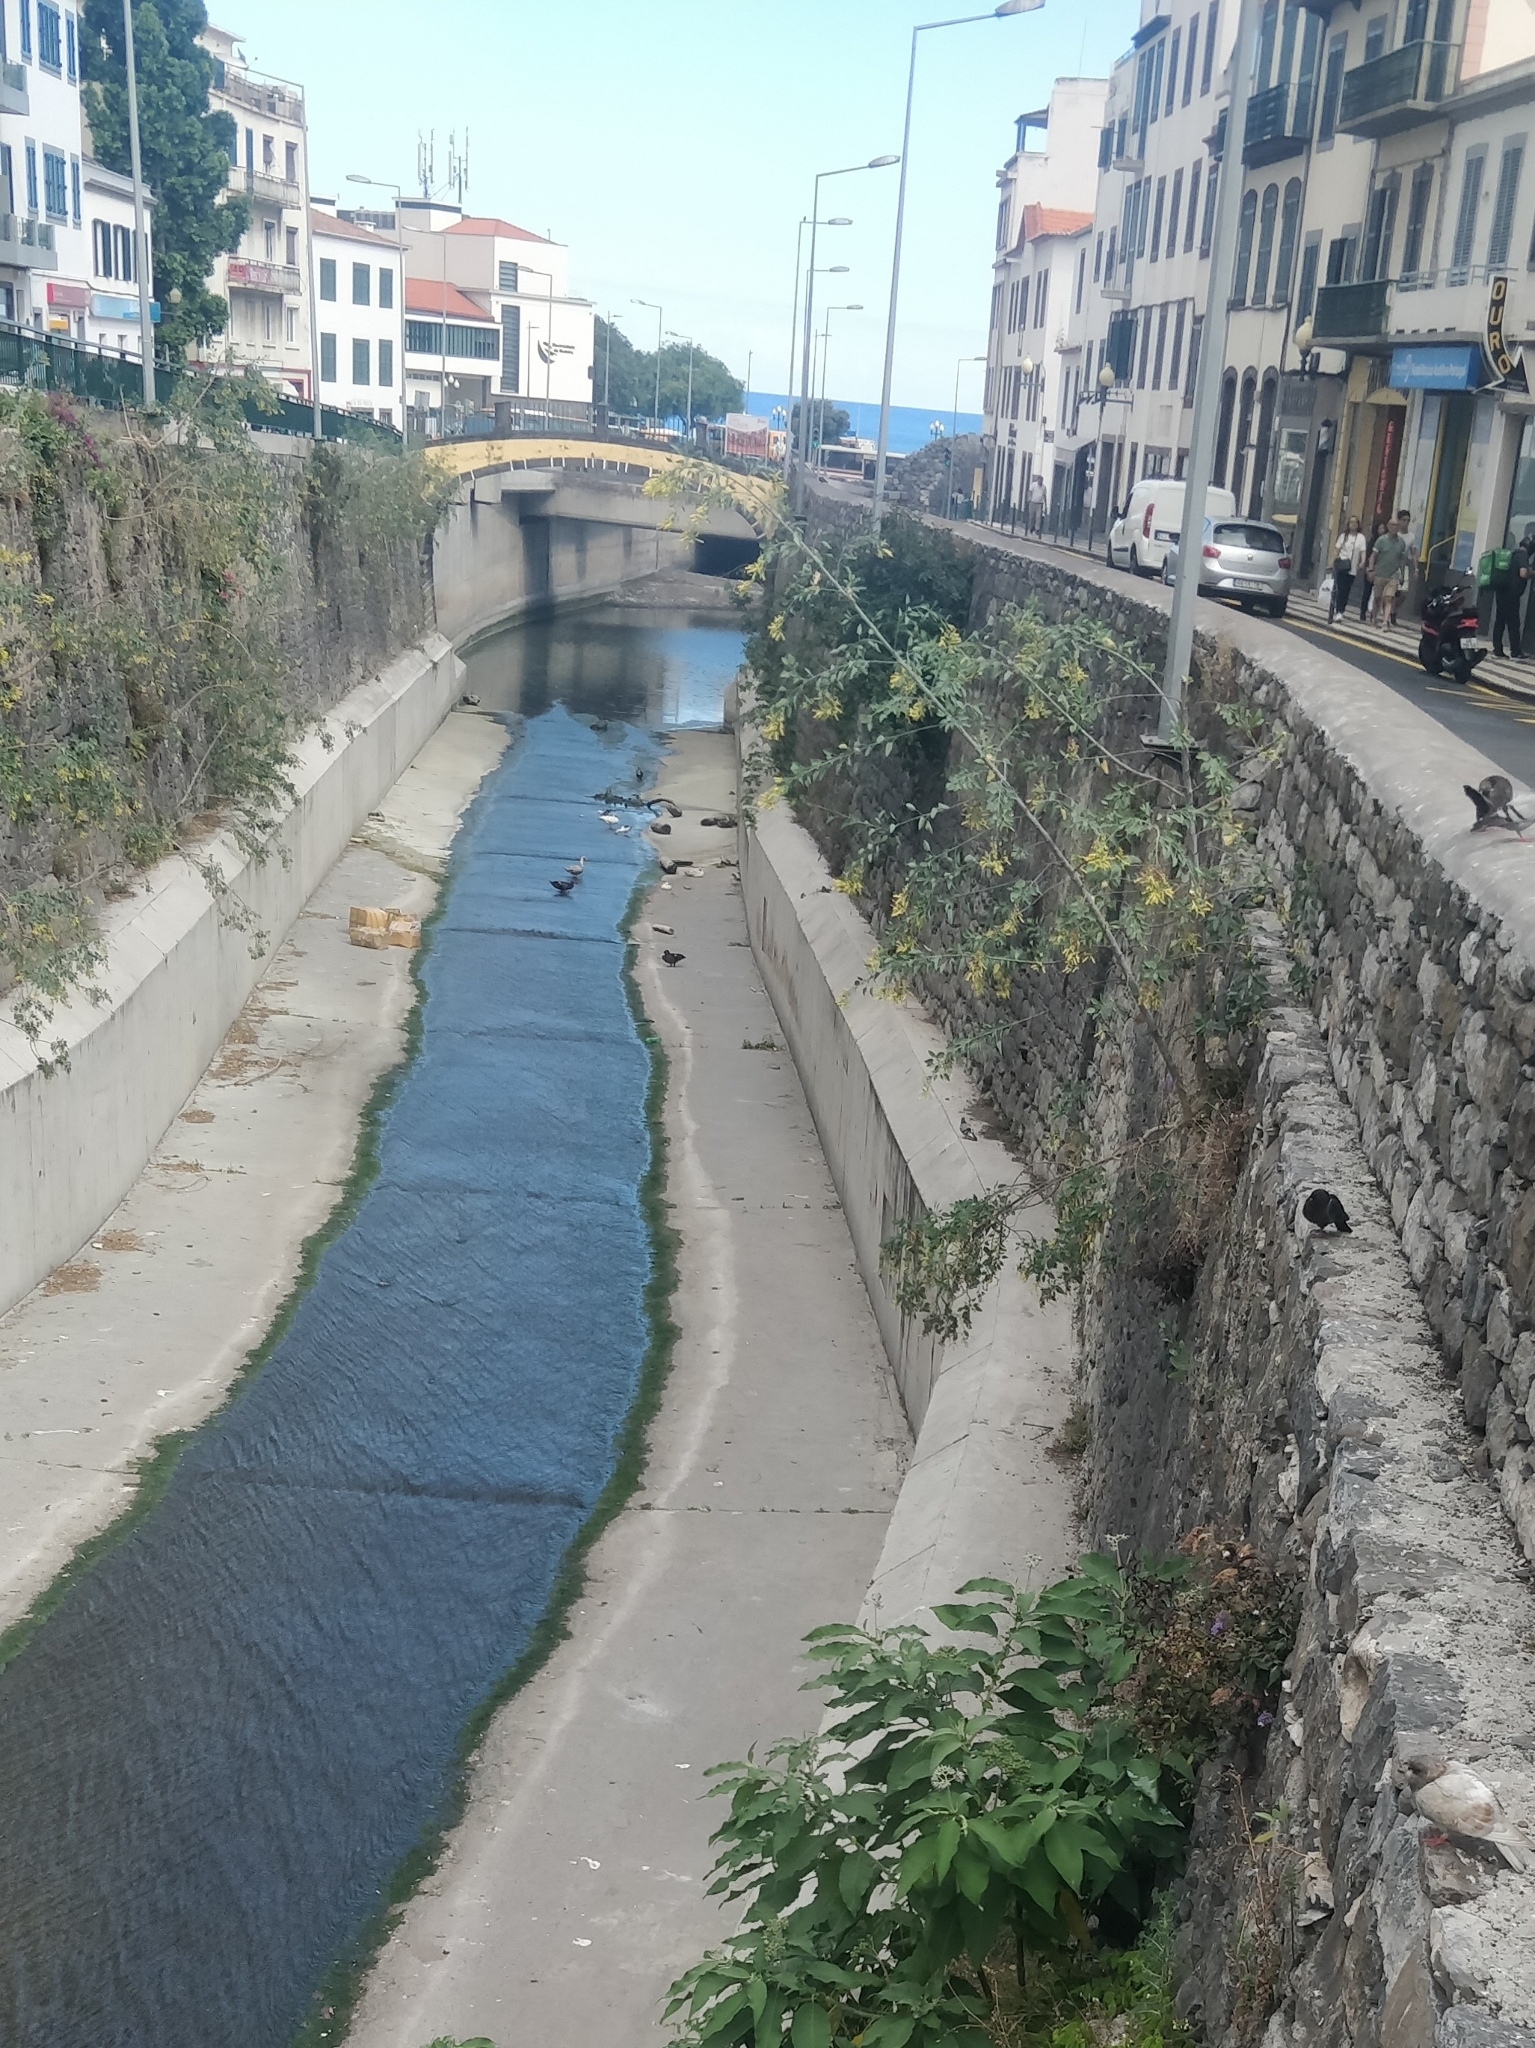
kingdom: Plantae
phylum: Tracheophyta
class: Magnoliopsida
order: Solanales
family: Solanaceae
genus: Nicotiana
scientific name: Nicotiana glauca
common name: Tree tobacco
